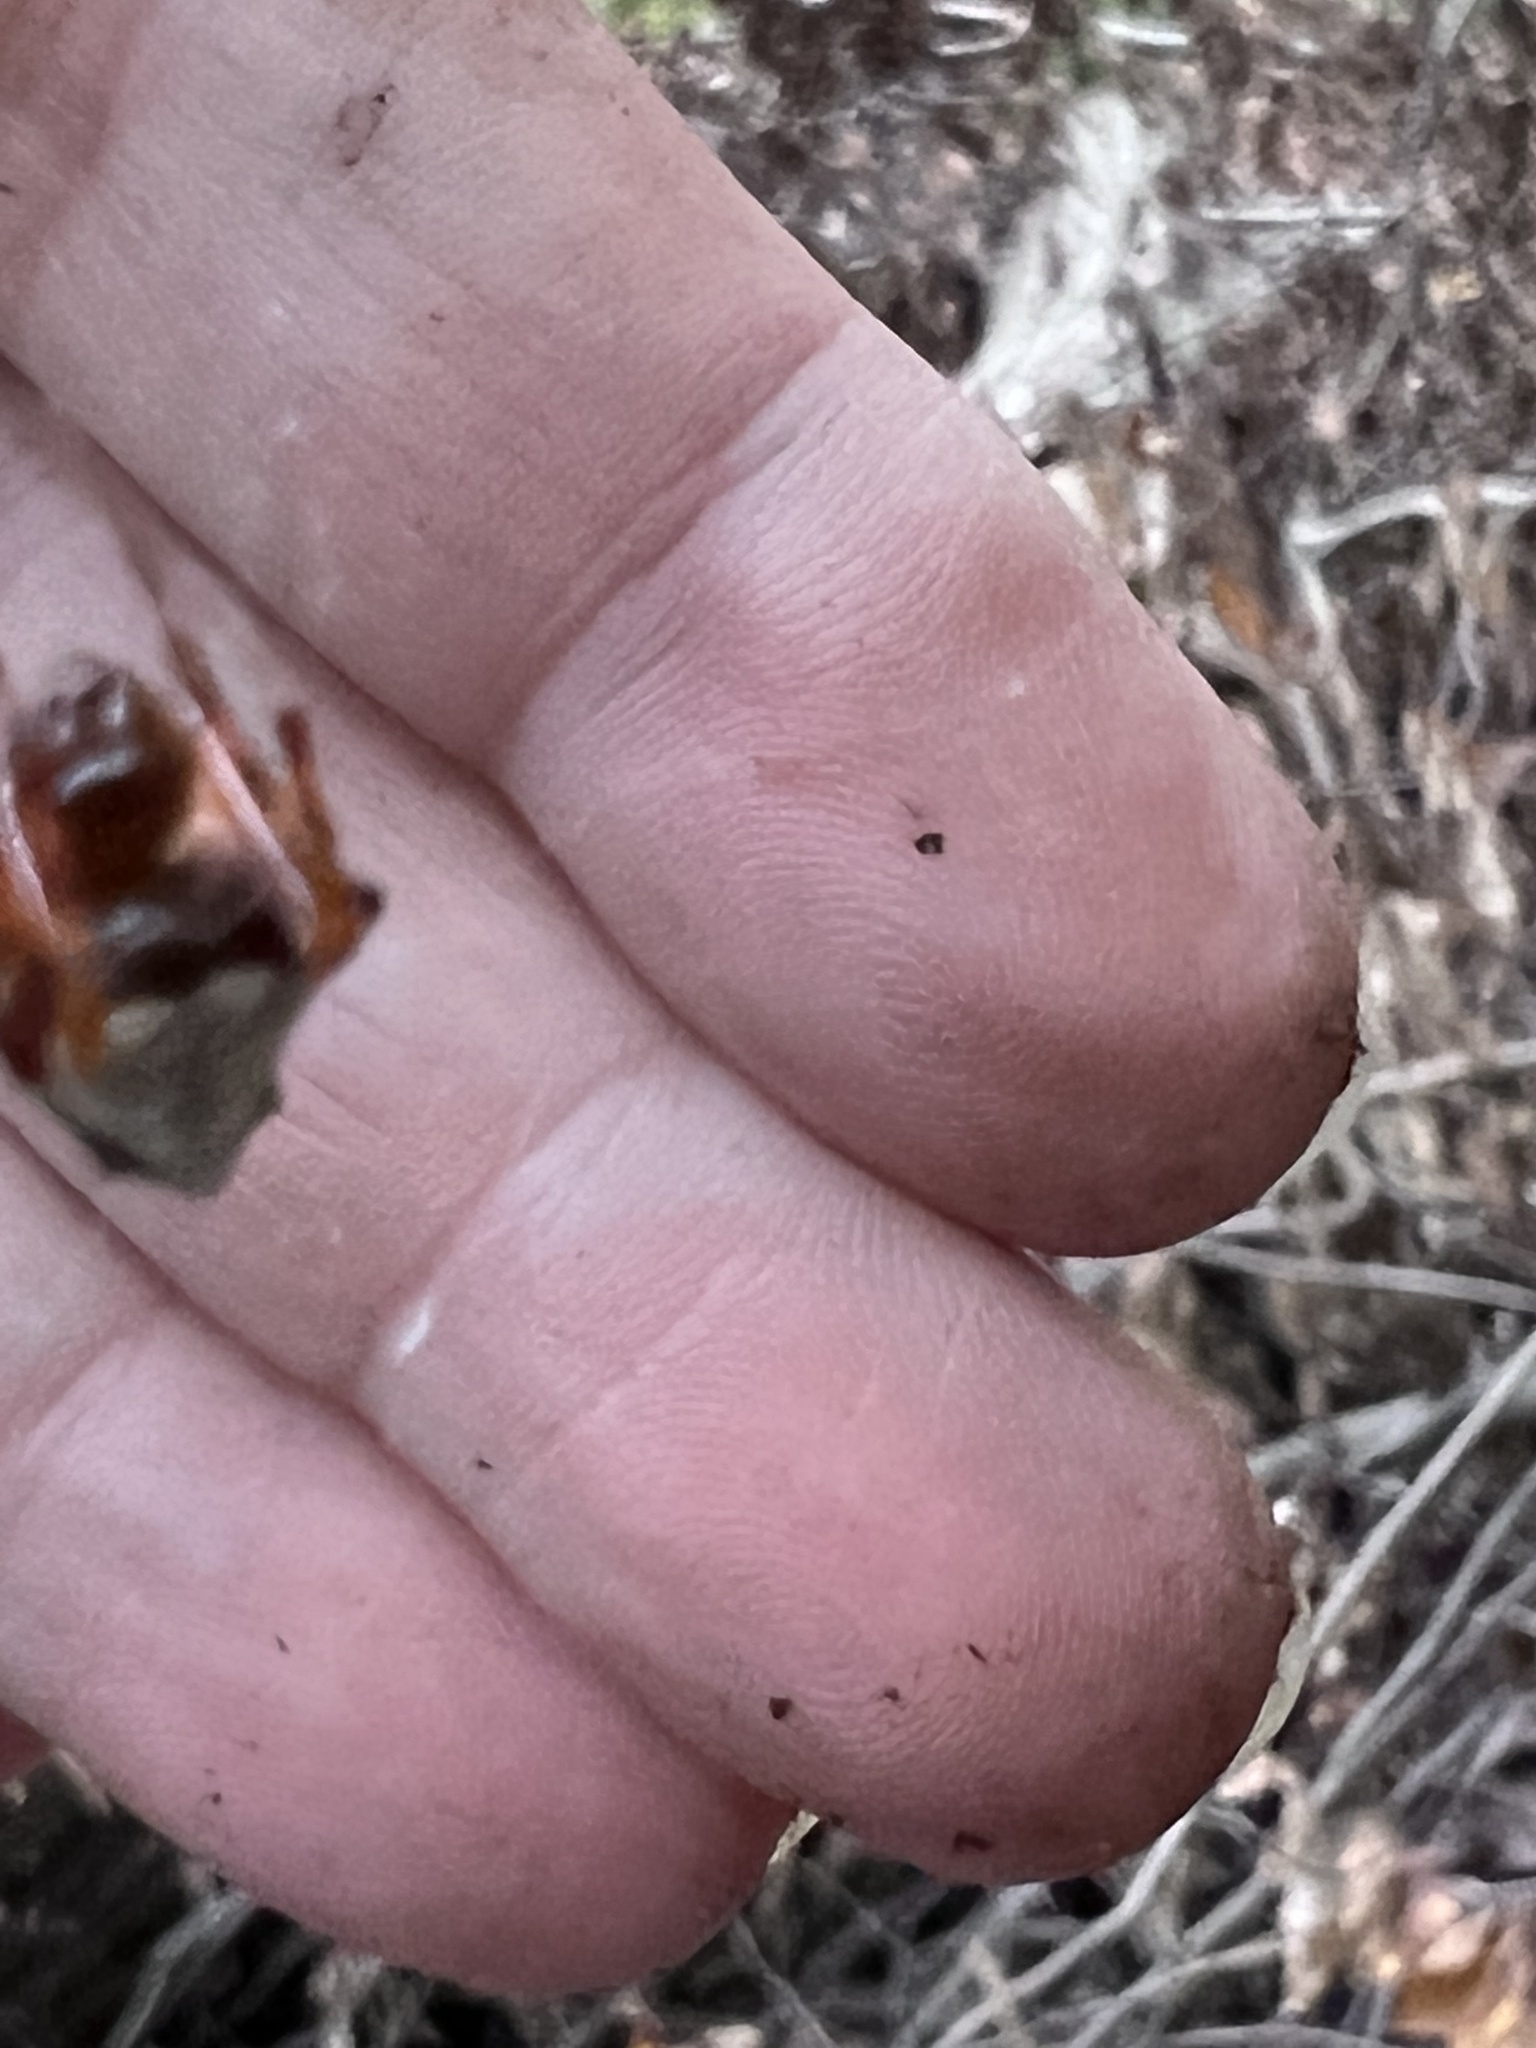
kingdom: Animalia
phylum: Arthropoda
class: Arachnida
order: Araneae
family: Araneidae
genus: Verrucosa
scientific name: Verrucosa arenata
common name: Orb weavers
